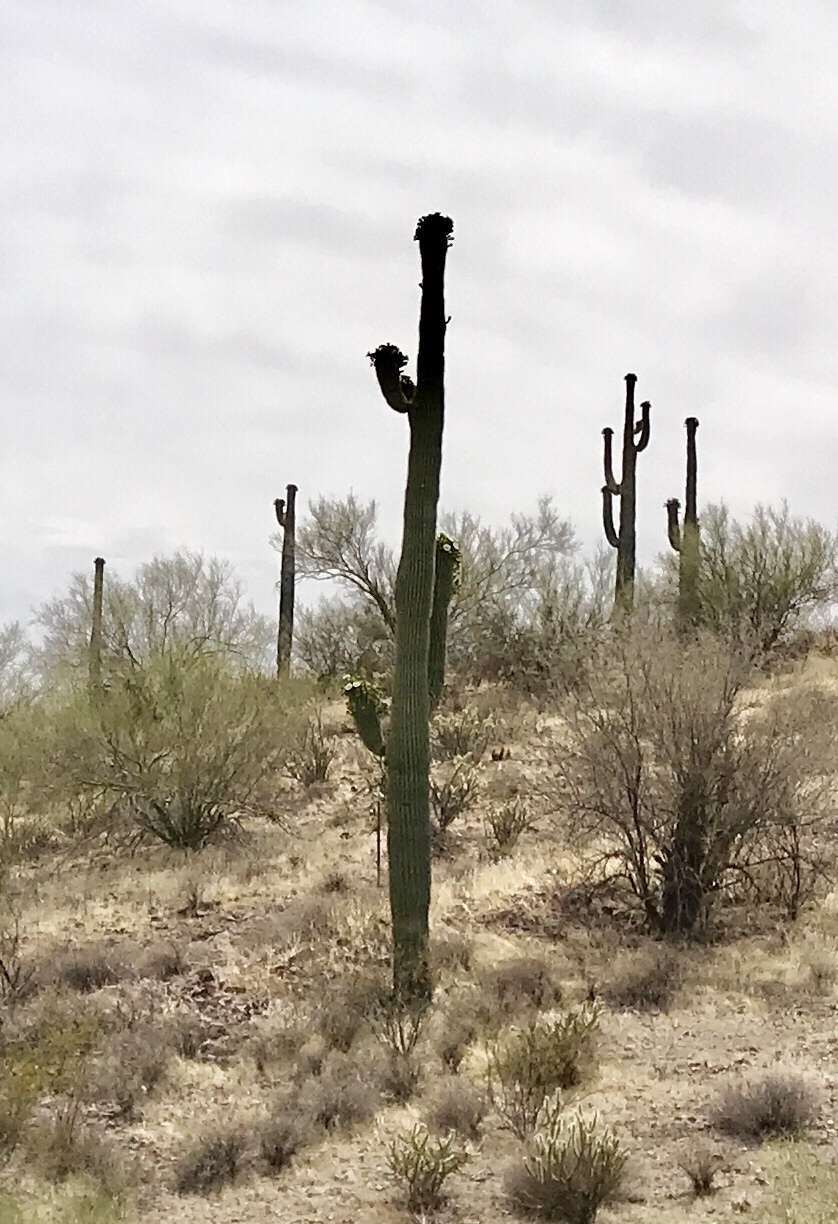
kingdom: Plantae
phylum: Tracheophyta
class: Magnoliopsida
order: Caryophyllales
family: Cactaceae
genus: Carnegiea
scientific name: Carnegiea gigantea
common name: Saguaro
